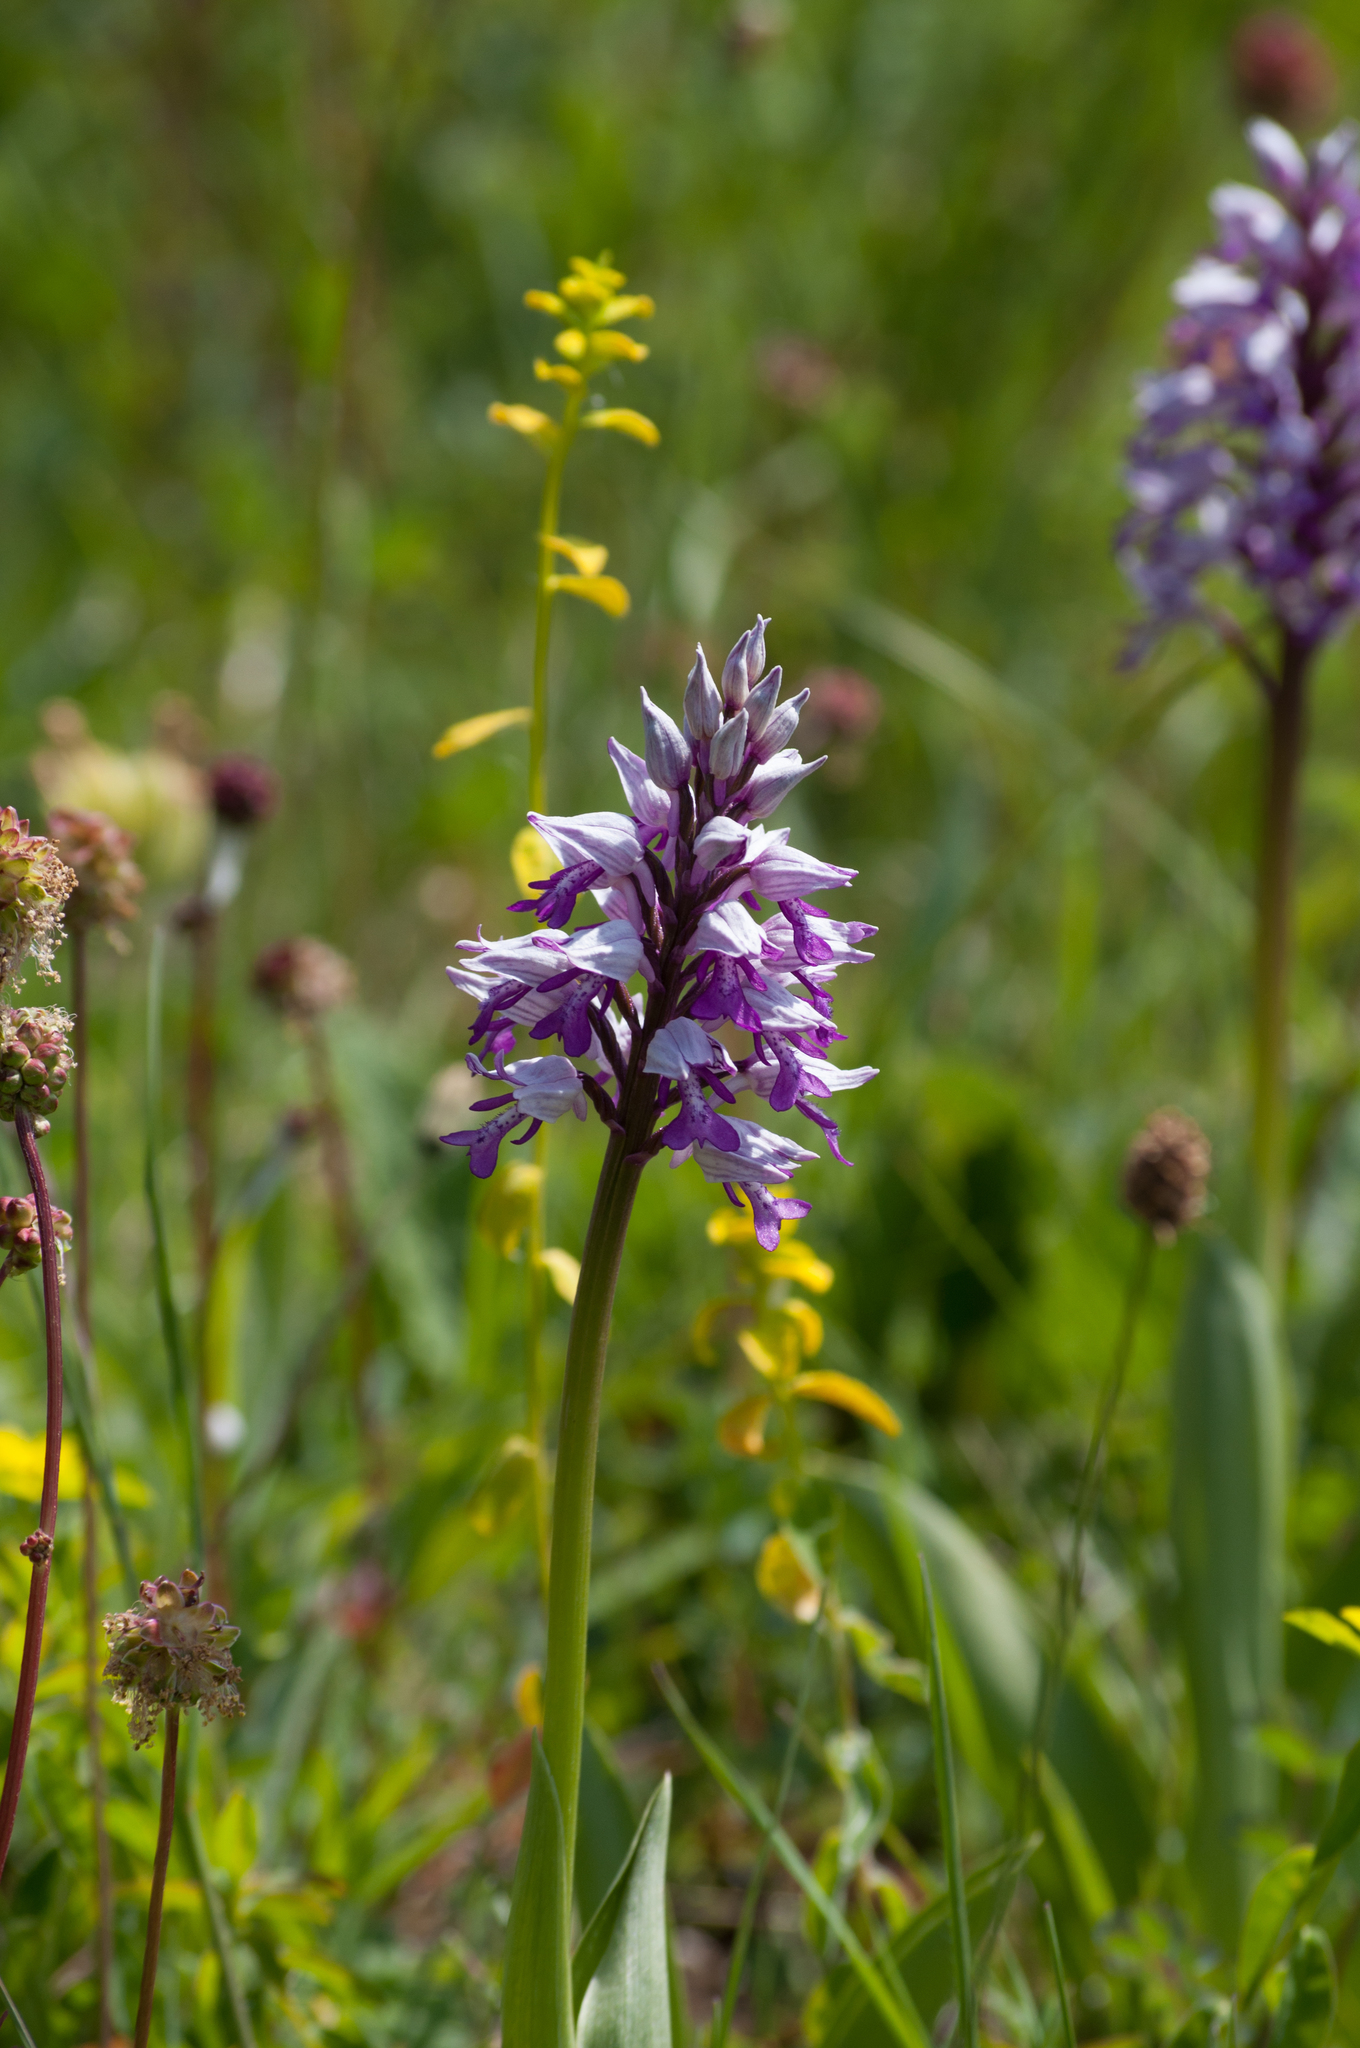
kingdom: Plantae
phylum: Tracheophyta
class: Liliopsida
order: Asparagales
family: Orchidaceae
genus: Orchis
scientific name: Orchis militaris
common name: Military orchid
